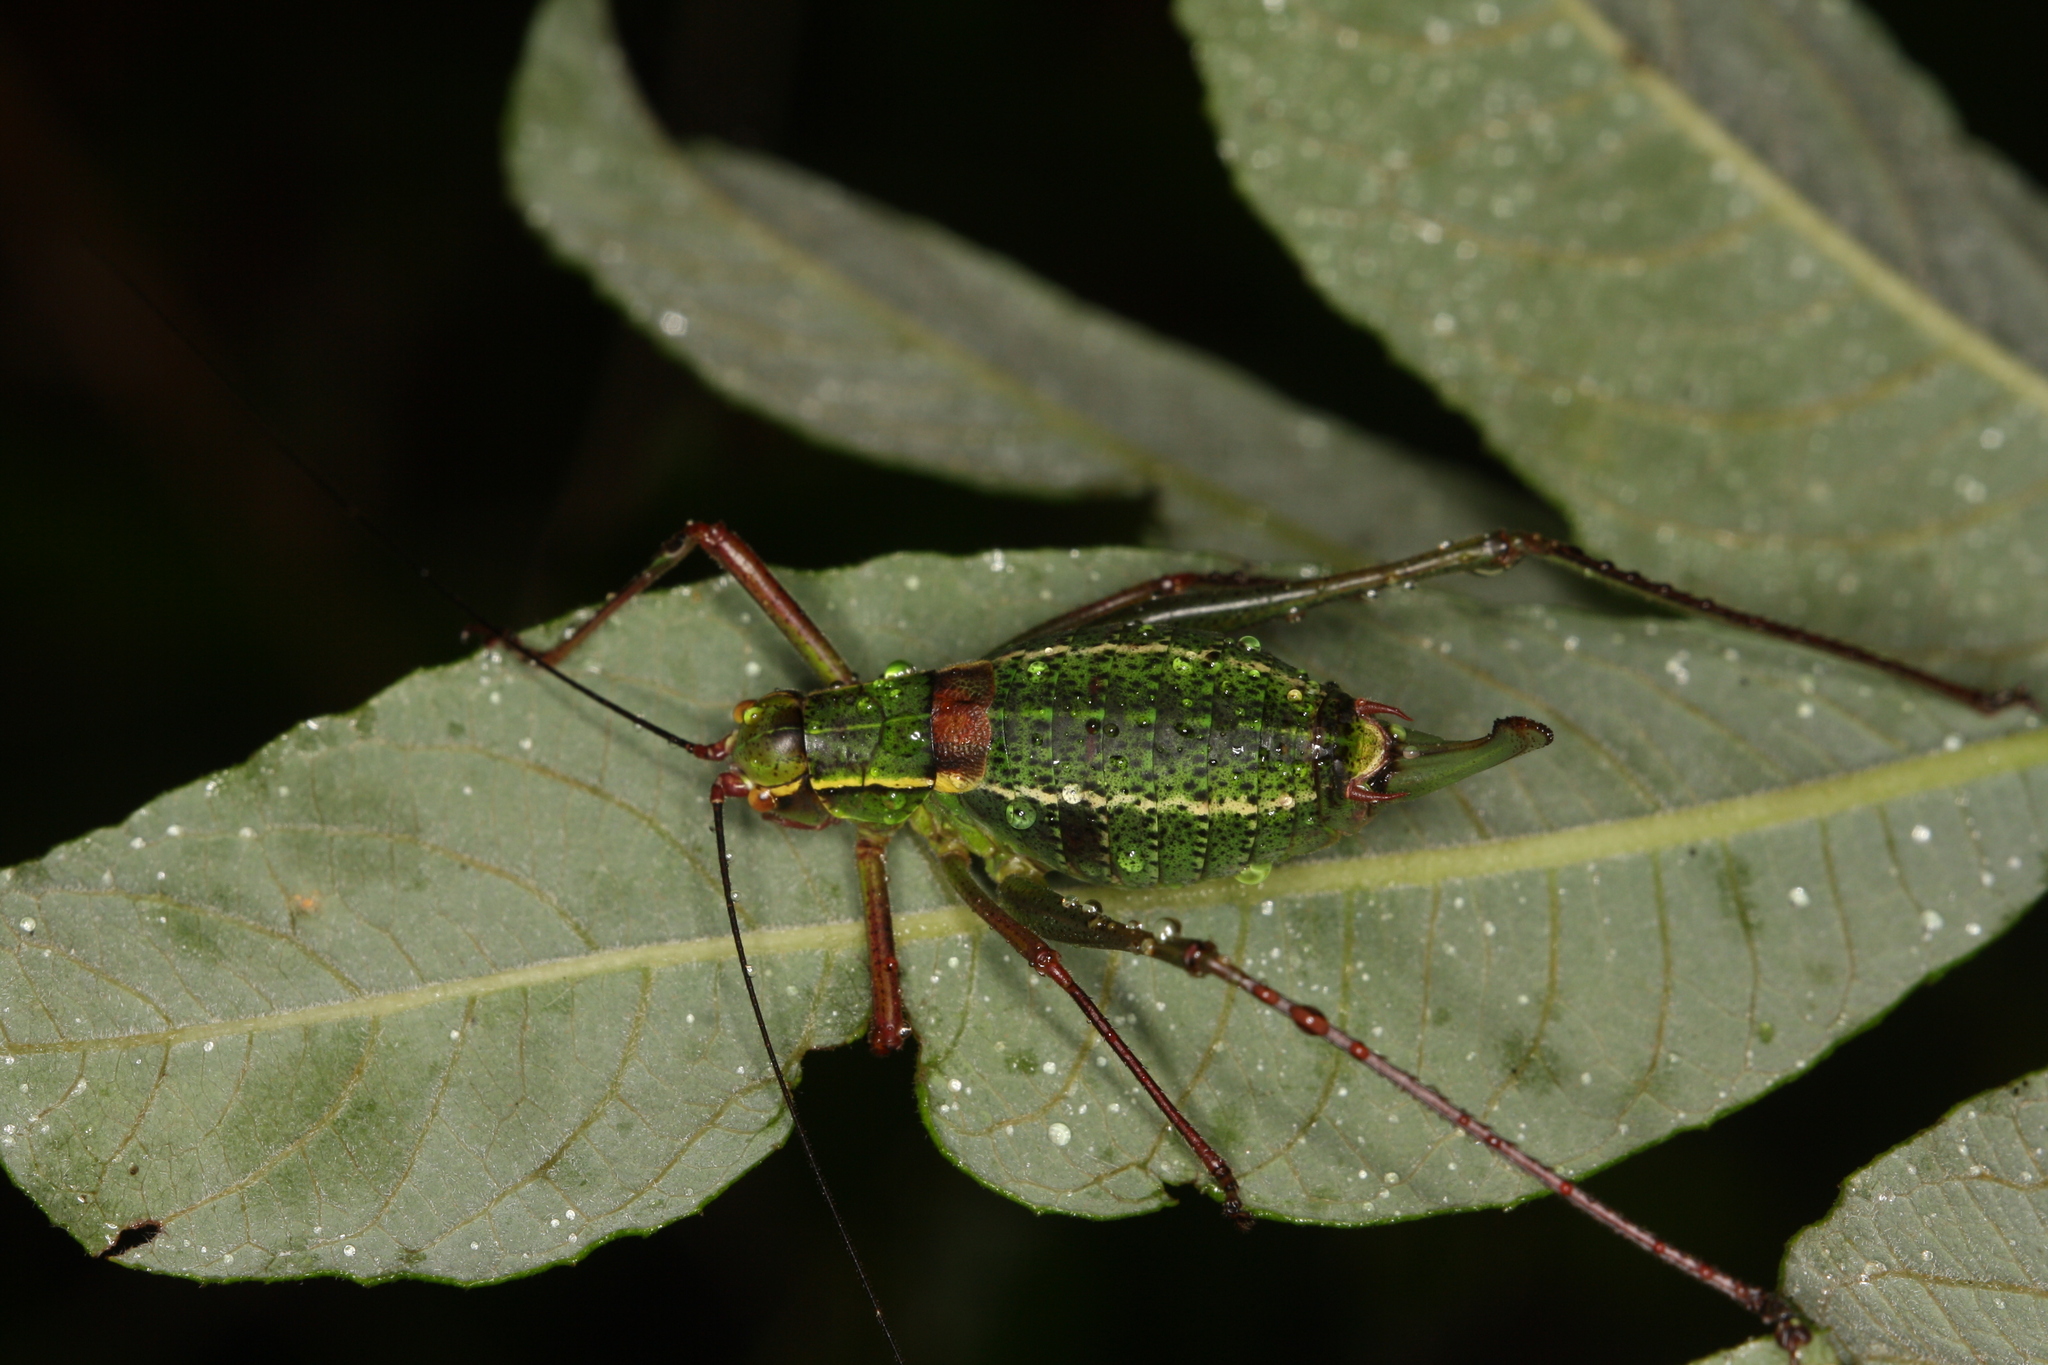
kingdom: Animalia
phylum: Arthropoda
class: Insecta
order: Orthoptera
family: Tettigoniidae
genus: Barbitistes
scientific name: Barbitistes serricauda
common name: Saw-tailed bush-cricket
